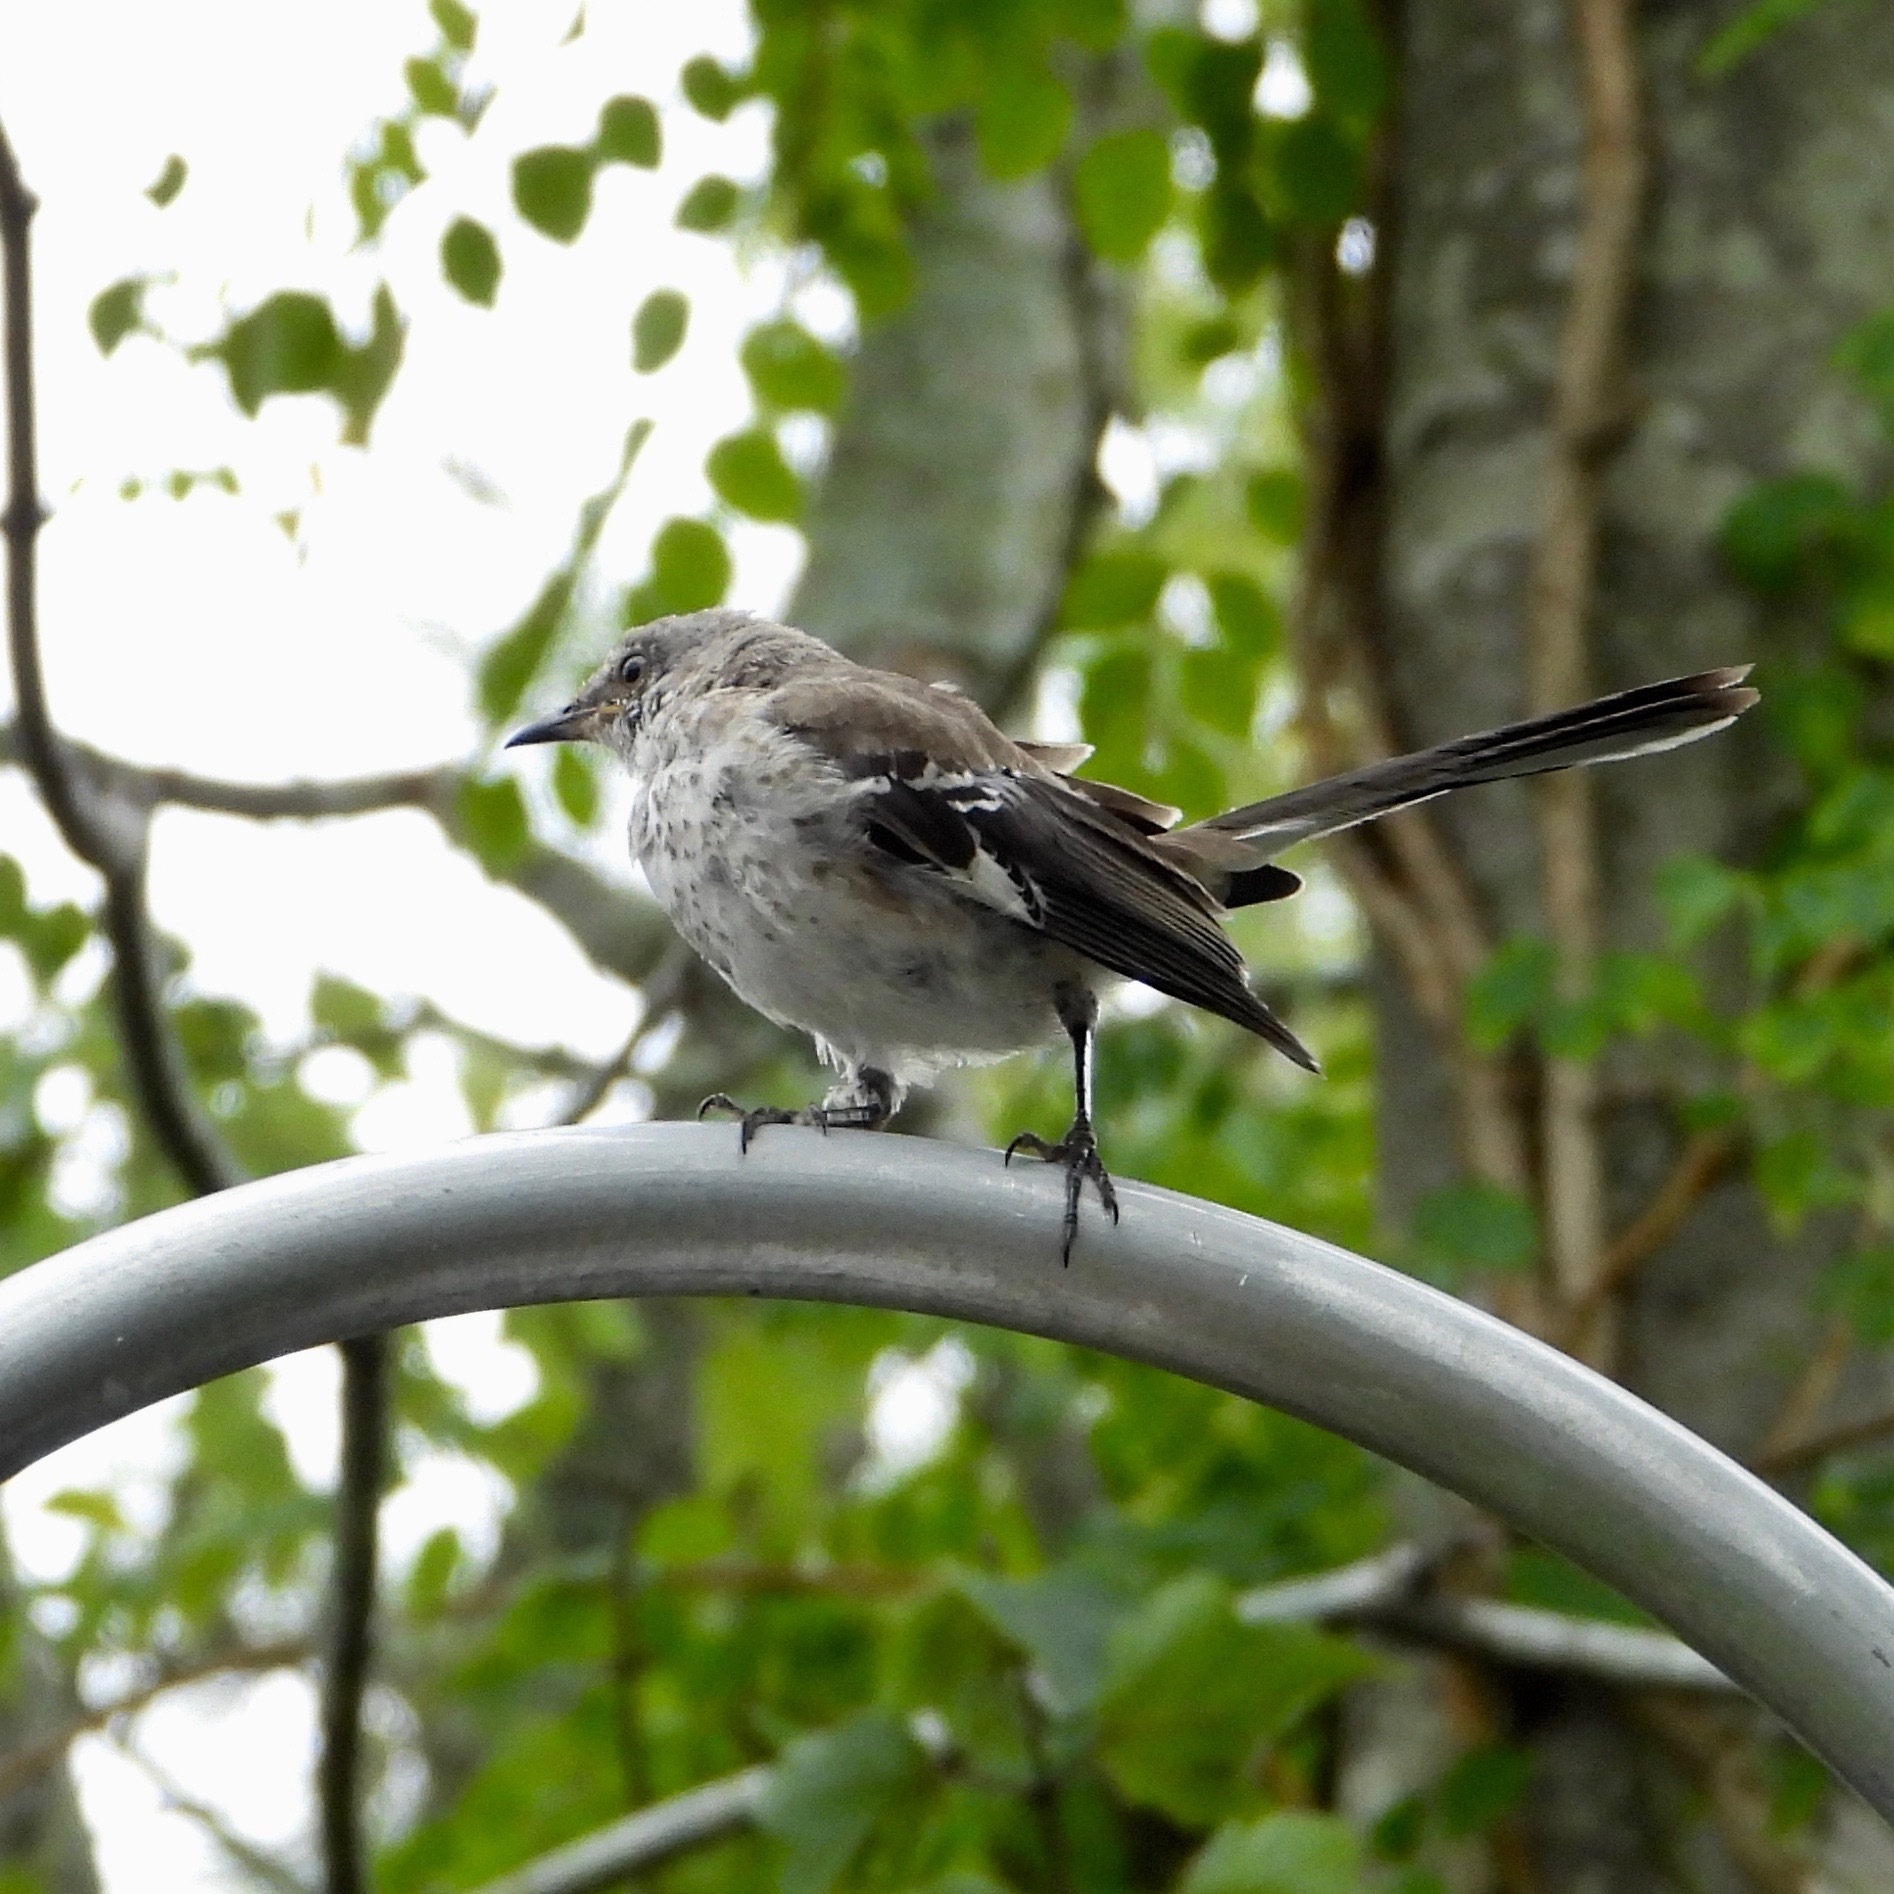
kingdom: Animalia
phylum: Chordata
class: Aves
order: Passeriformes
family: Mimidae
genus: Mimus
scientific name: Mimus polyglottos
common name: Northern mockingbird
